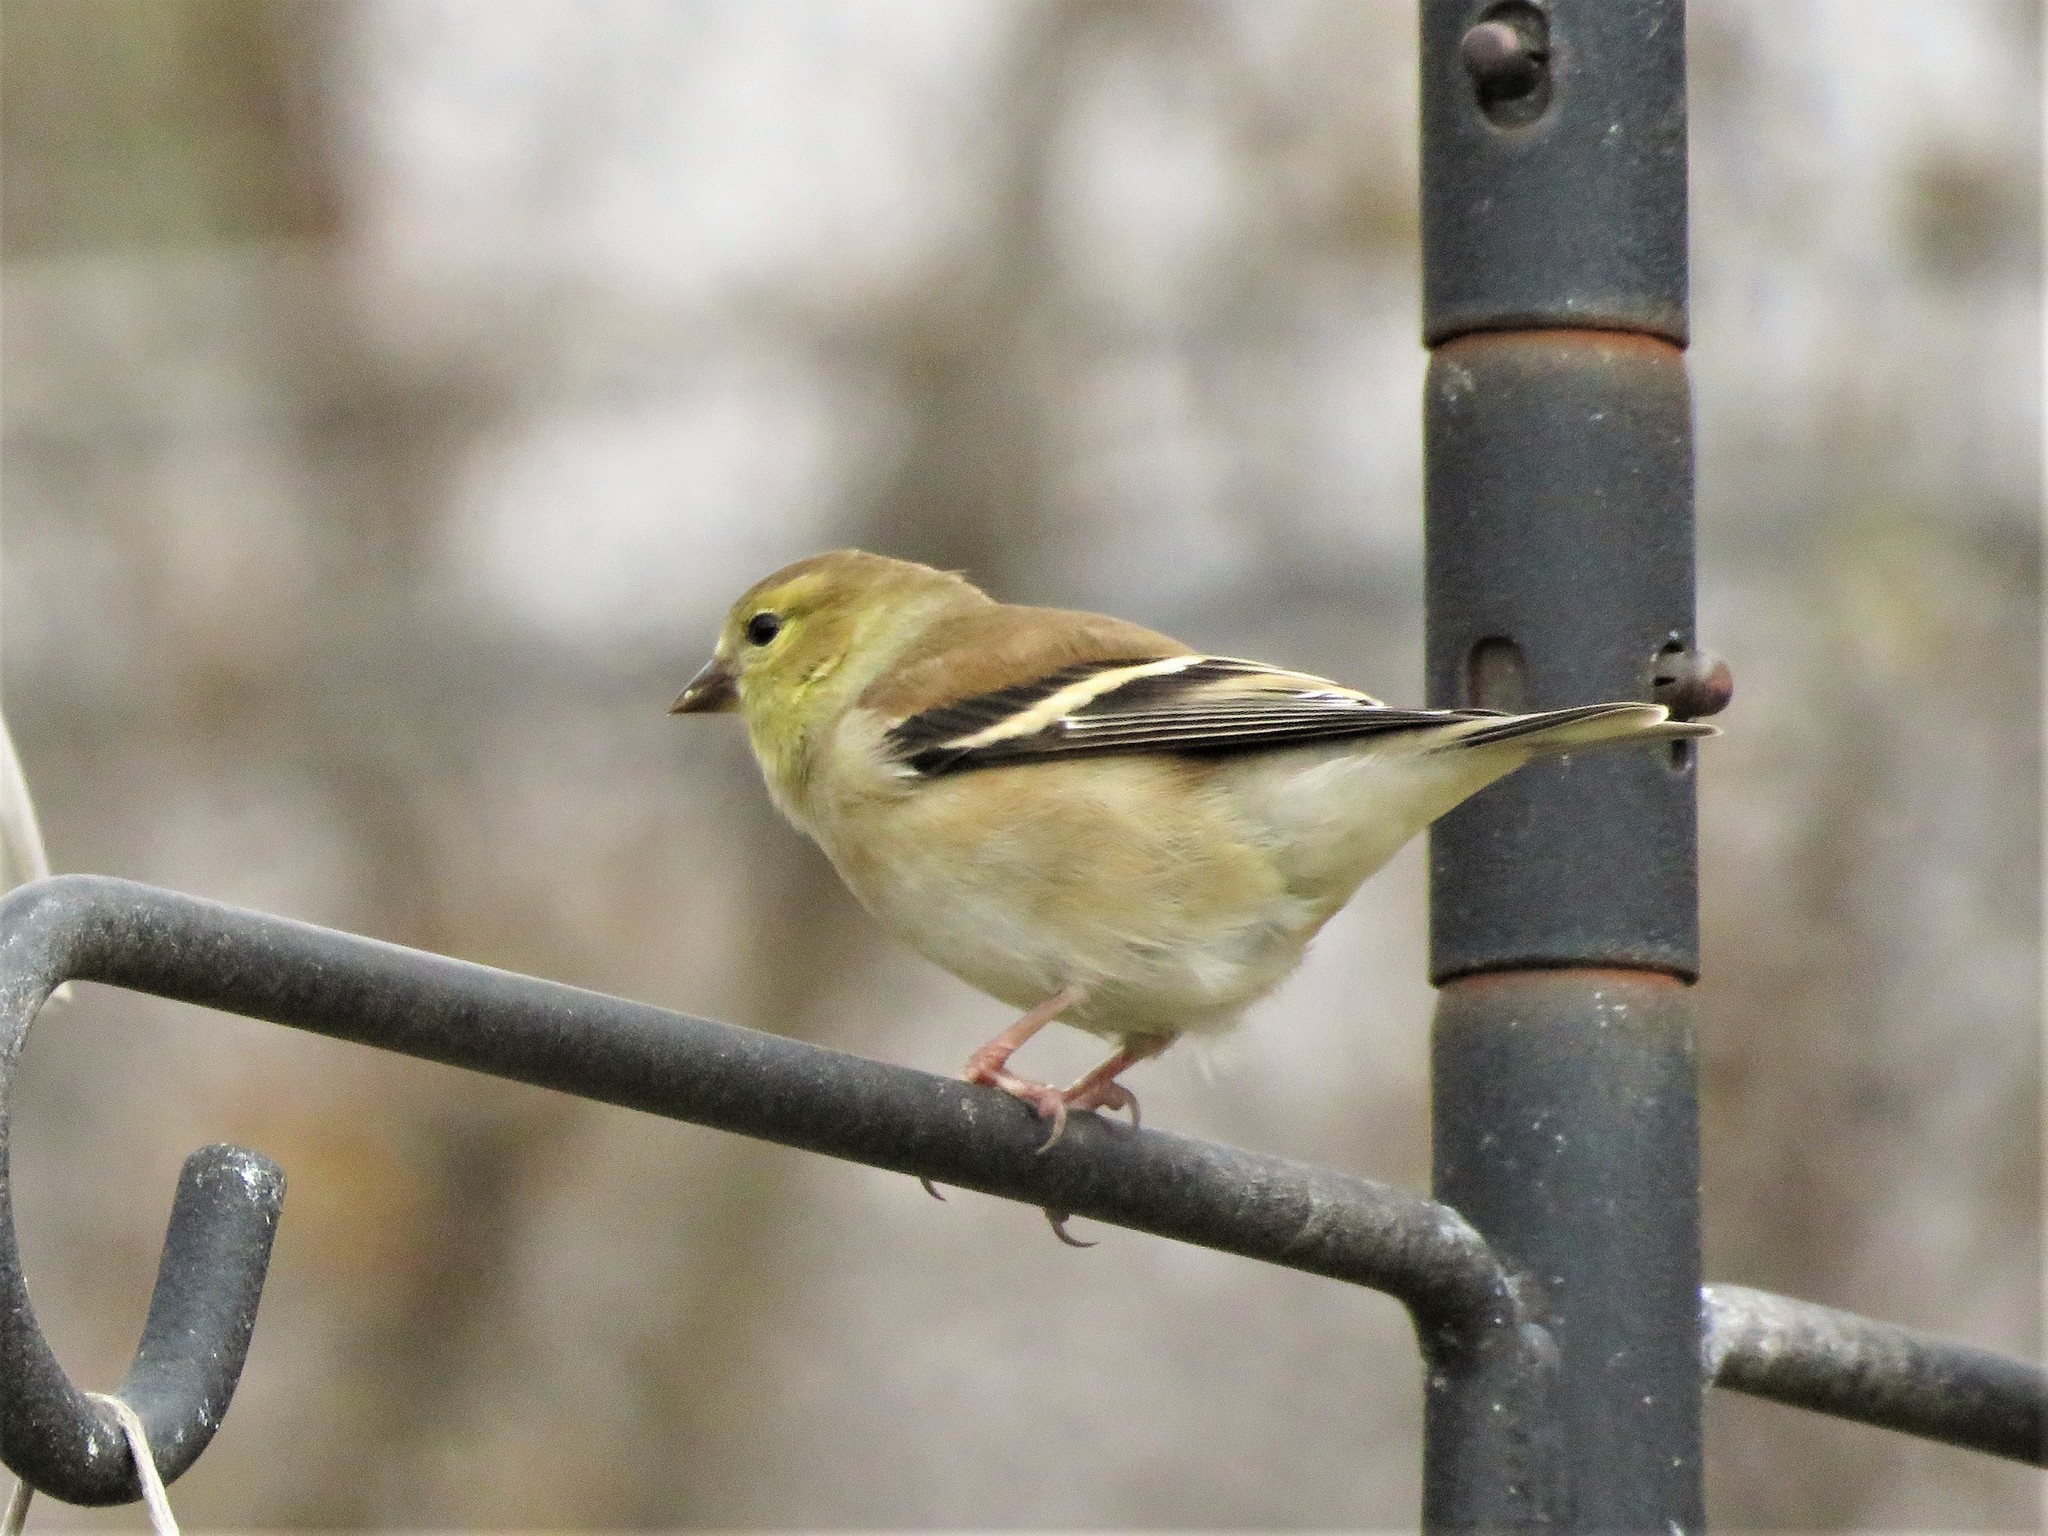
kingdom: Animalia
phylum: Chordata
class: Aves
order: Passeriformes
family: Fringillidae
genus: Spinus
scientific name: Spinus tristis
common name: American goldfinch
